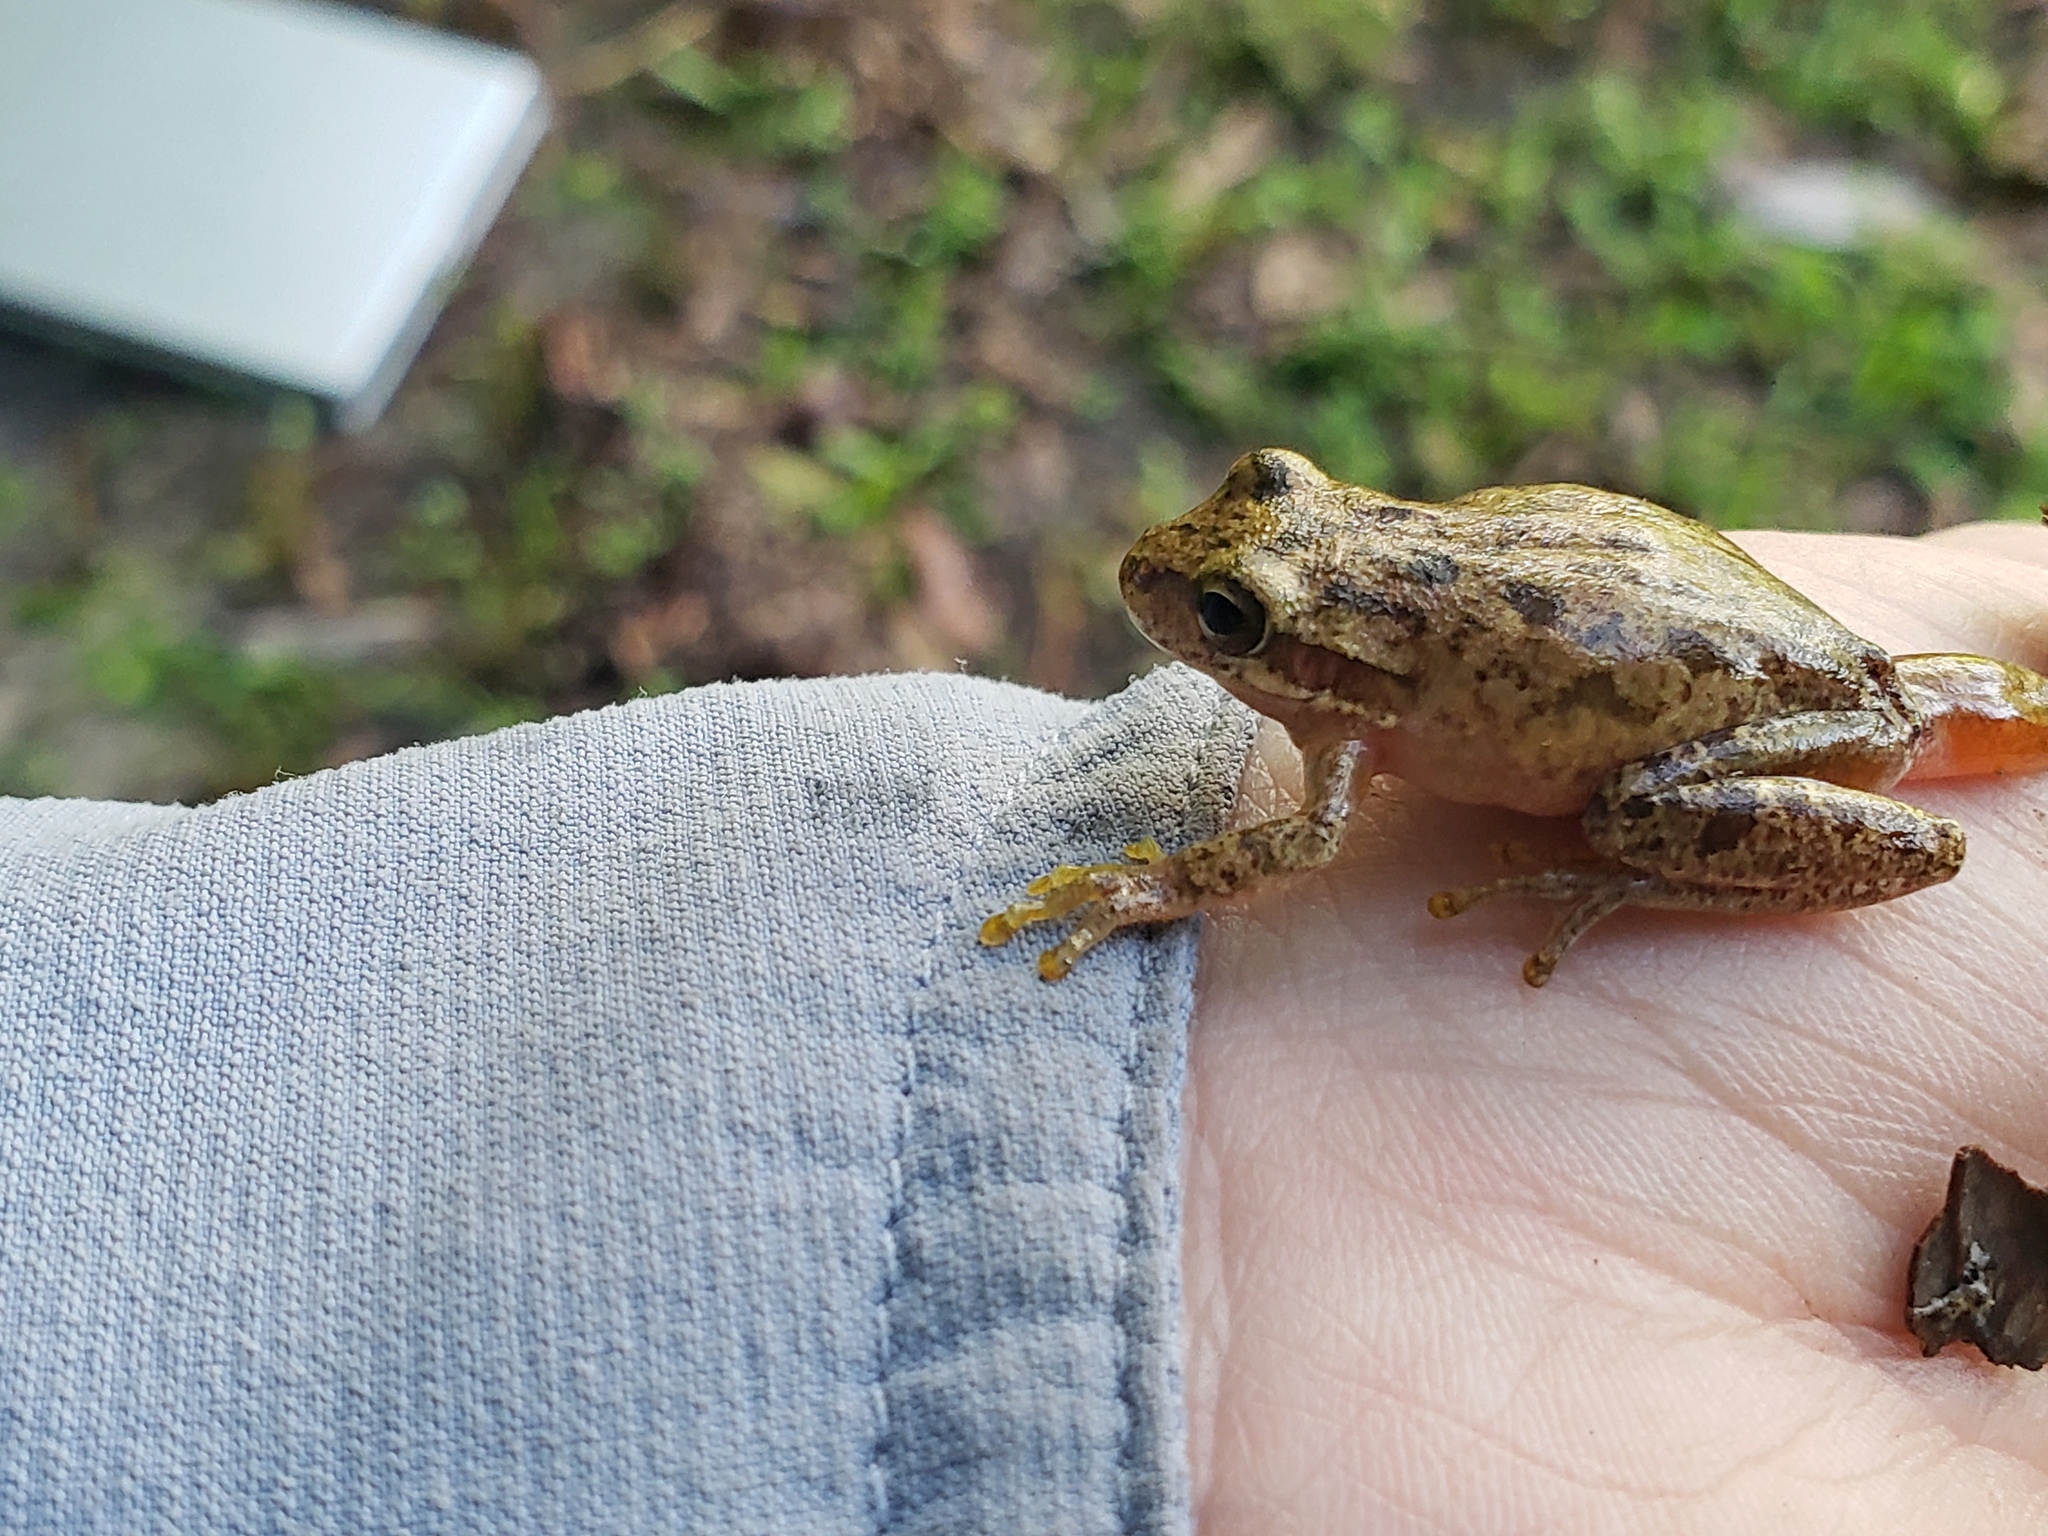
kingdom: Animalia
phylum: Chordata
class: Amphibia
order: Anura
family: Hylidae
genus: Dryophytes
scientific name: Dryophytes squirellus
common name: Squirrel treefrog
